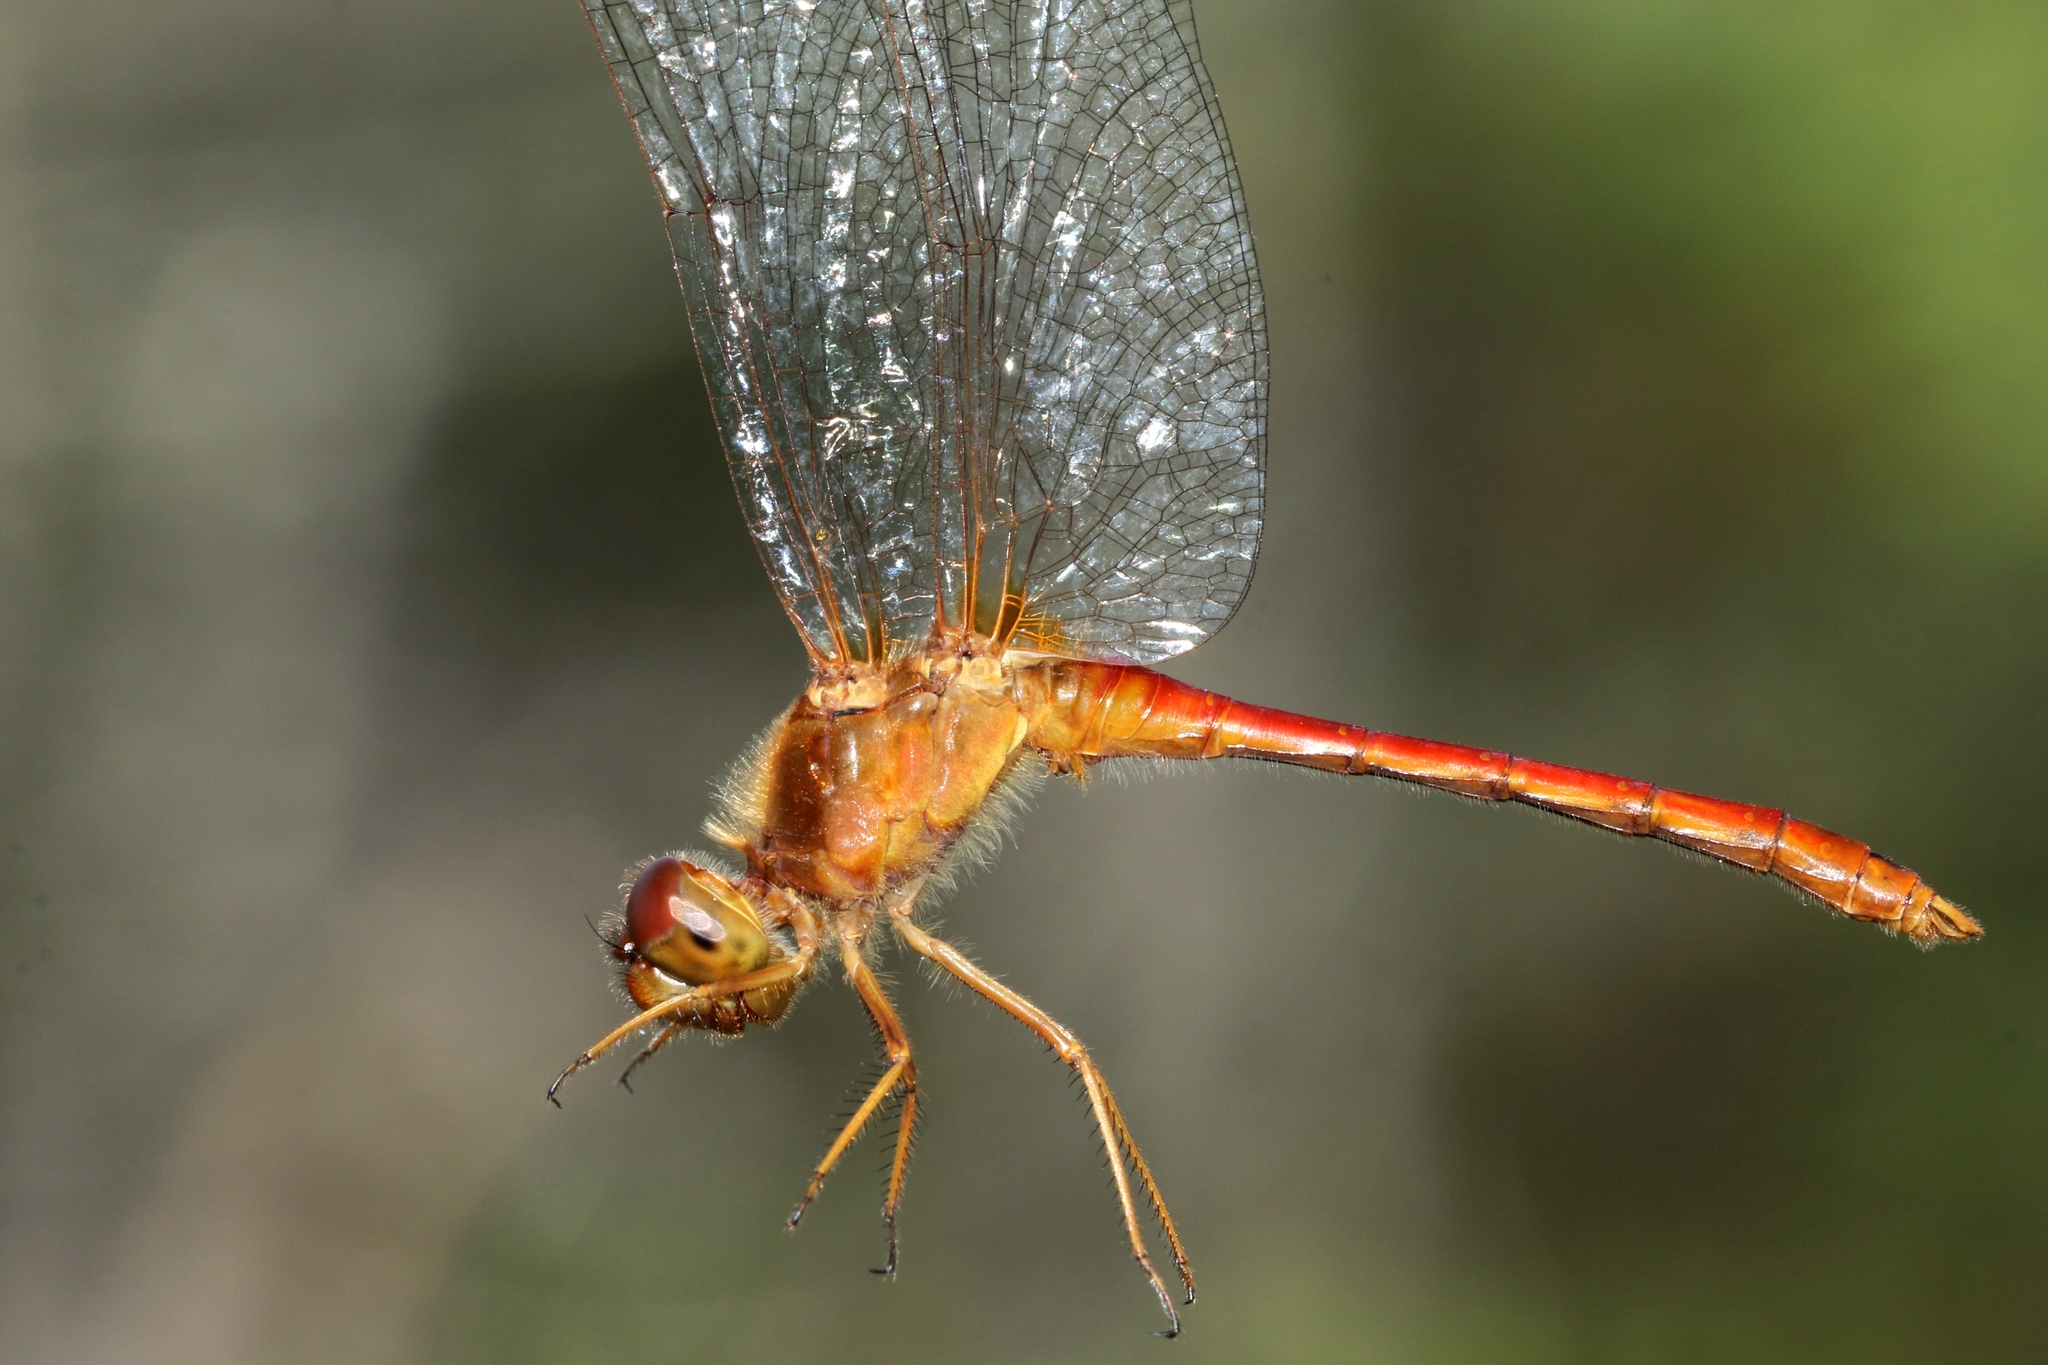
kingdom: Animalia
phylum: Arthropoda
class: Insecta
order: Odonata
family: Libellulidae
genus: Sympetrum
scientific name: Sympetrum vicinum
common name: Autumn meadowhawk
